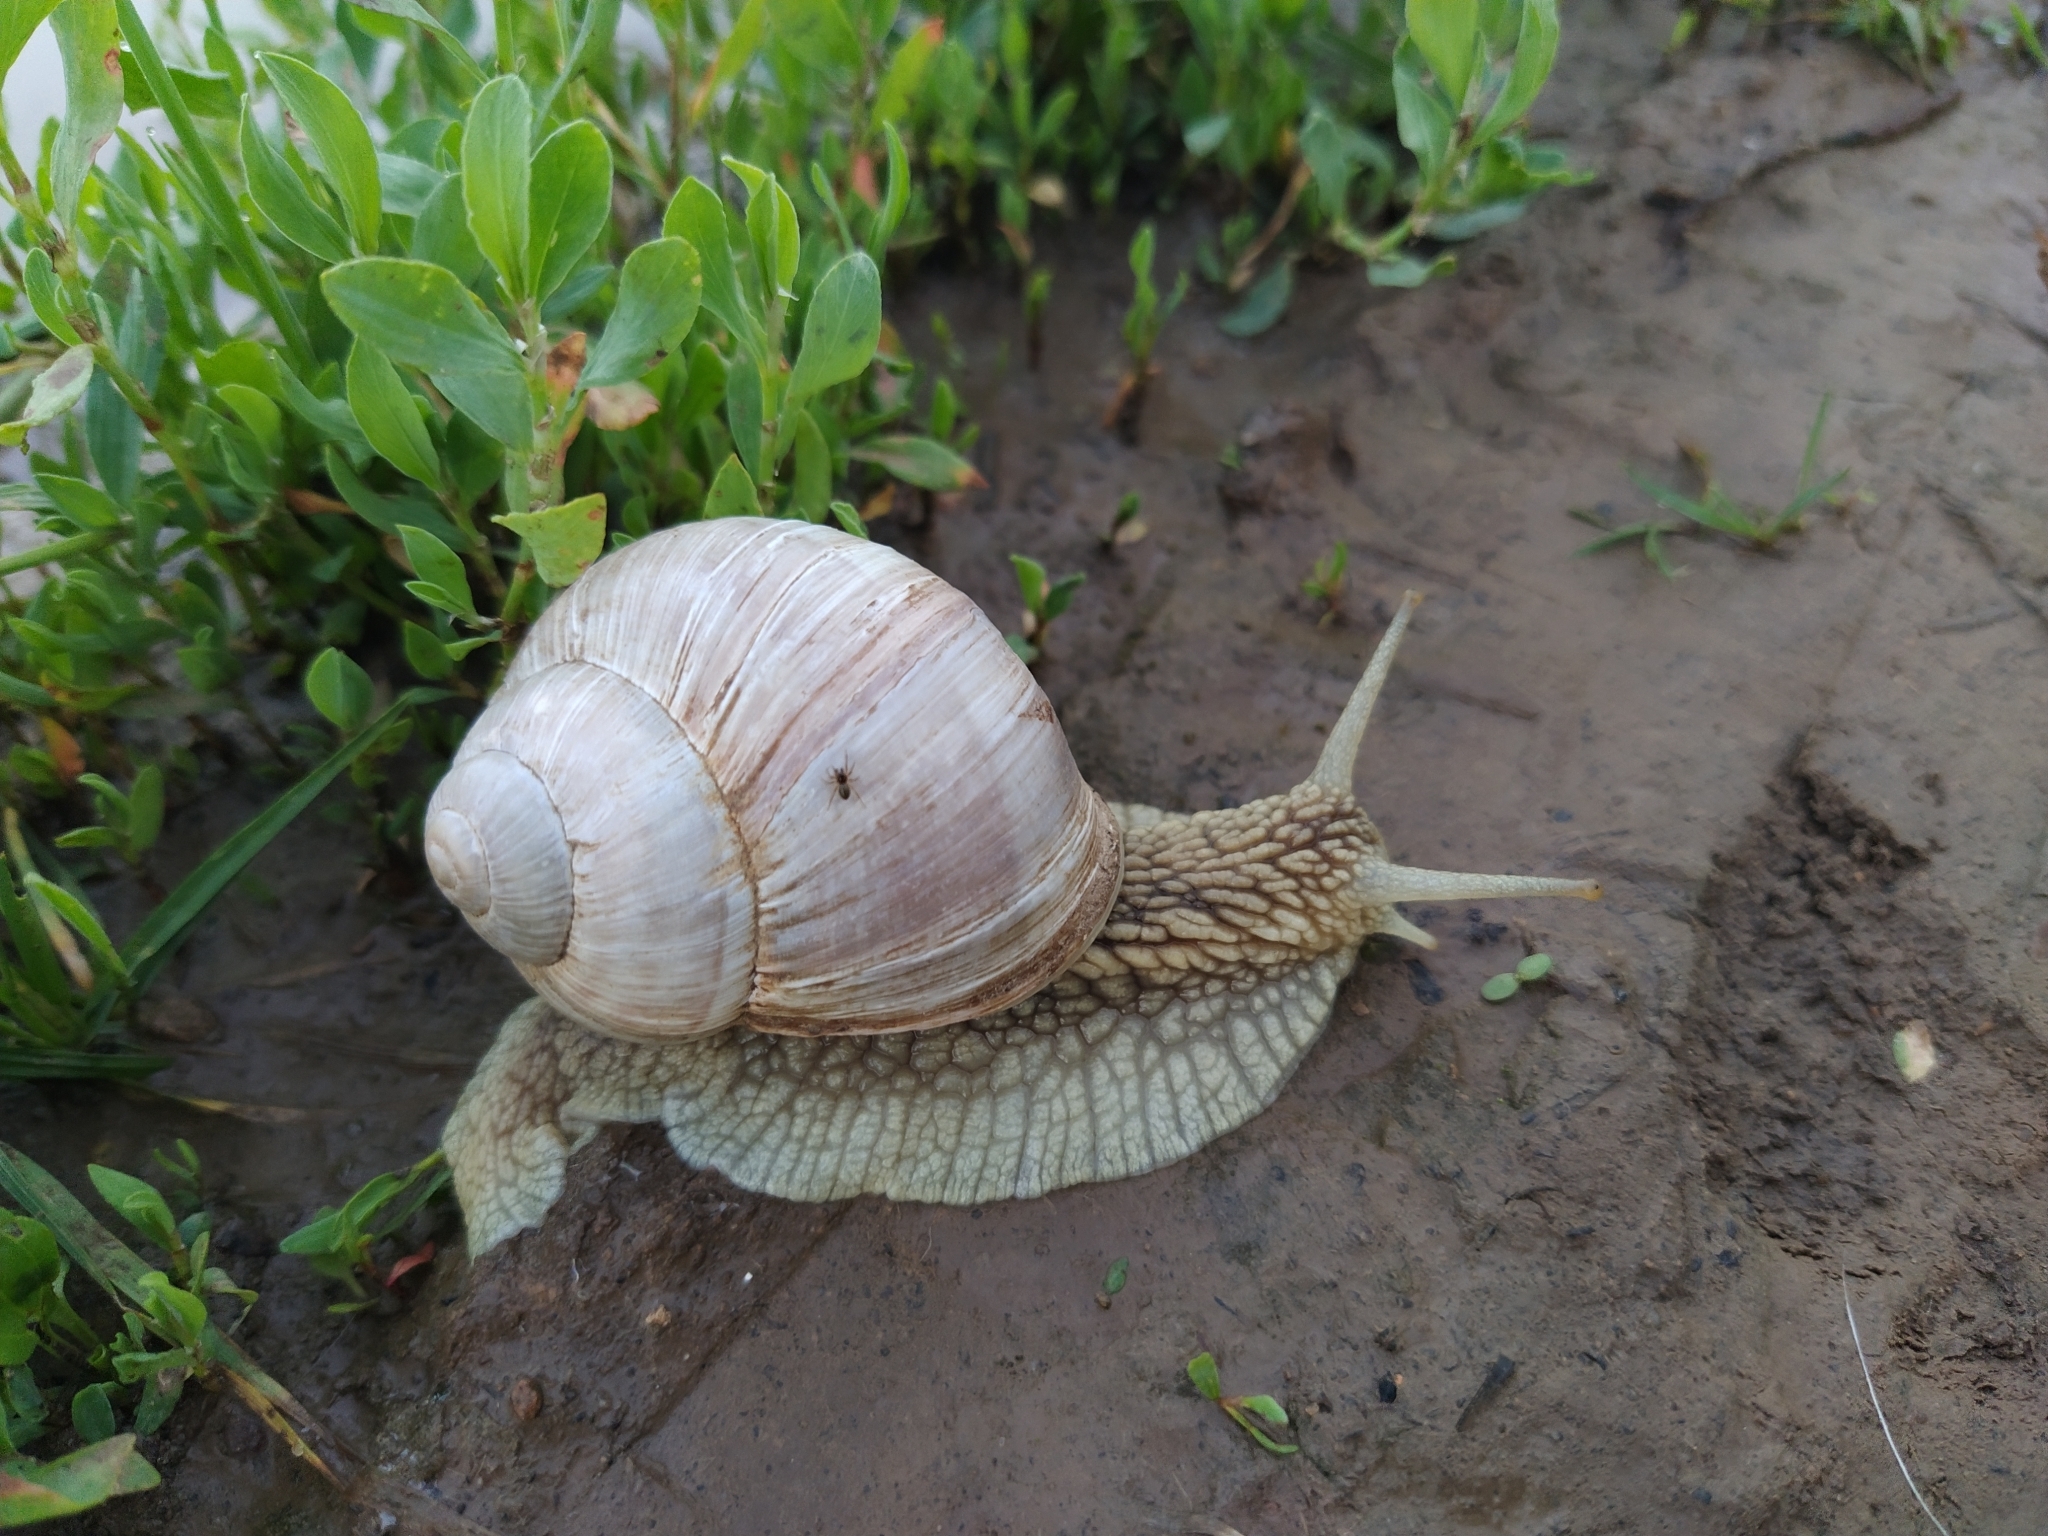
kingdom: Animalia
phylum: Mollusca
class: Gastropoda
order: Stylommatophora
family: Helicidae
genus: Helix
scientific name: Helix pomatia
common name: Roman snail
